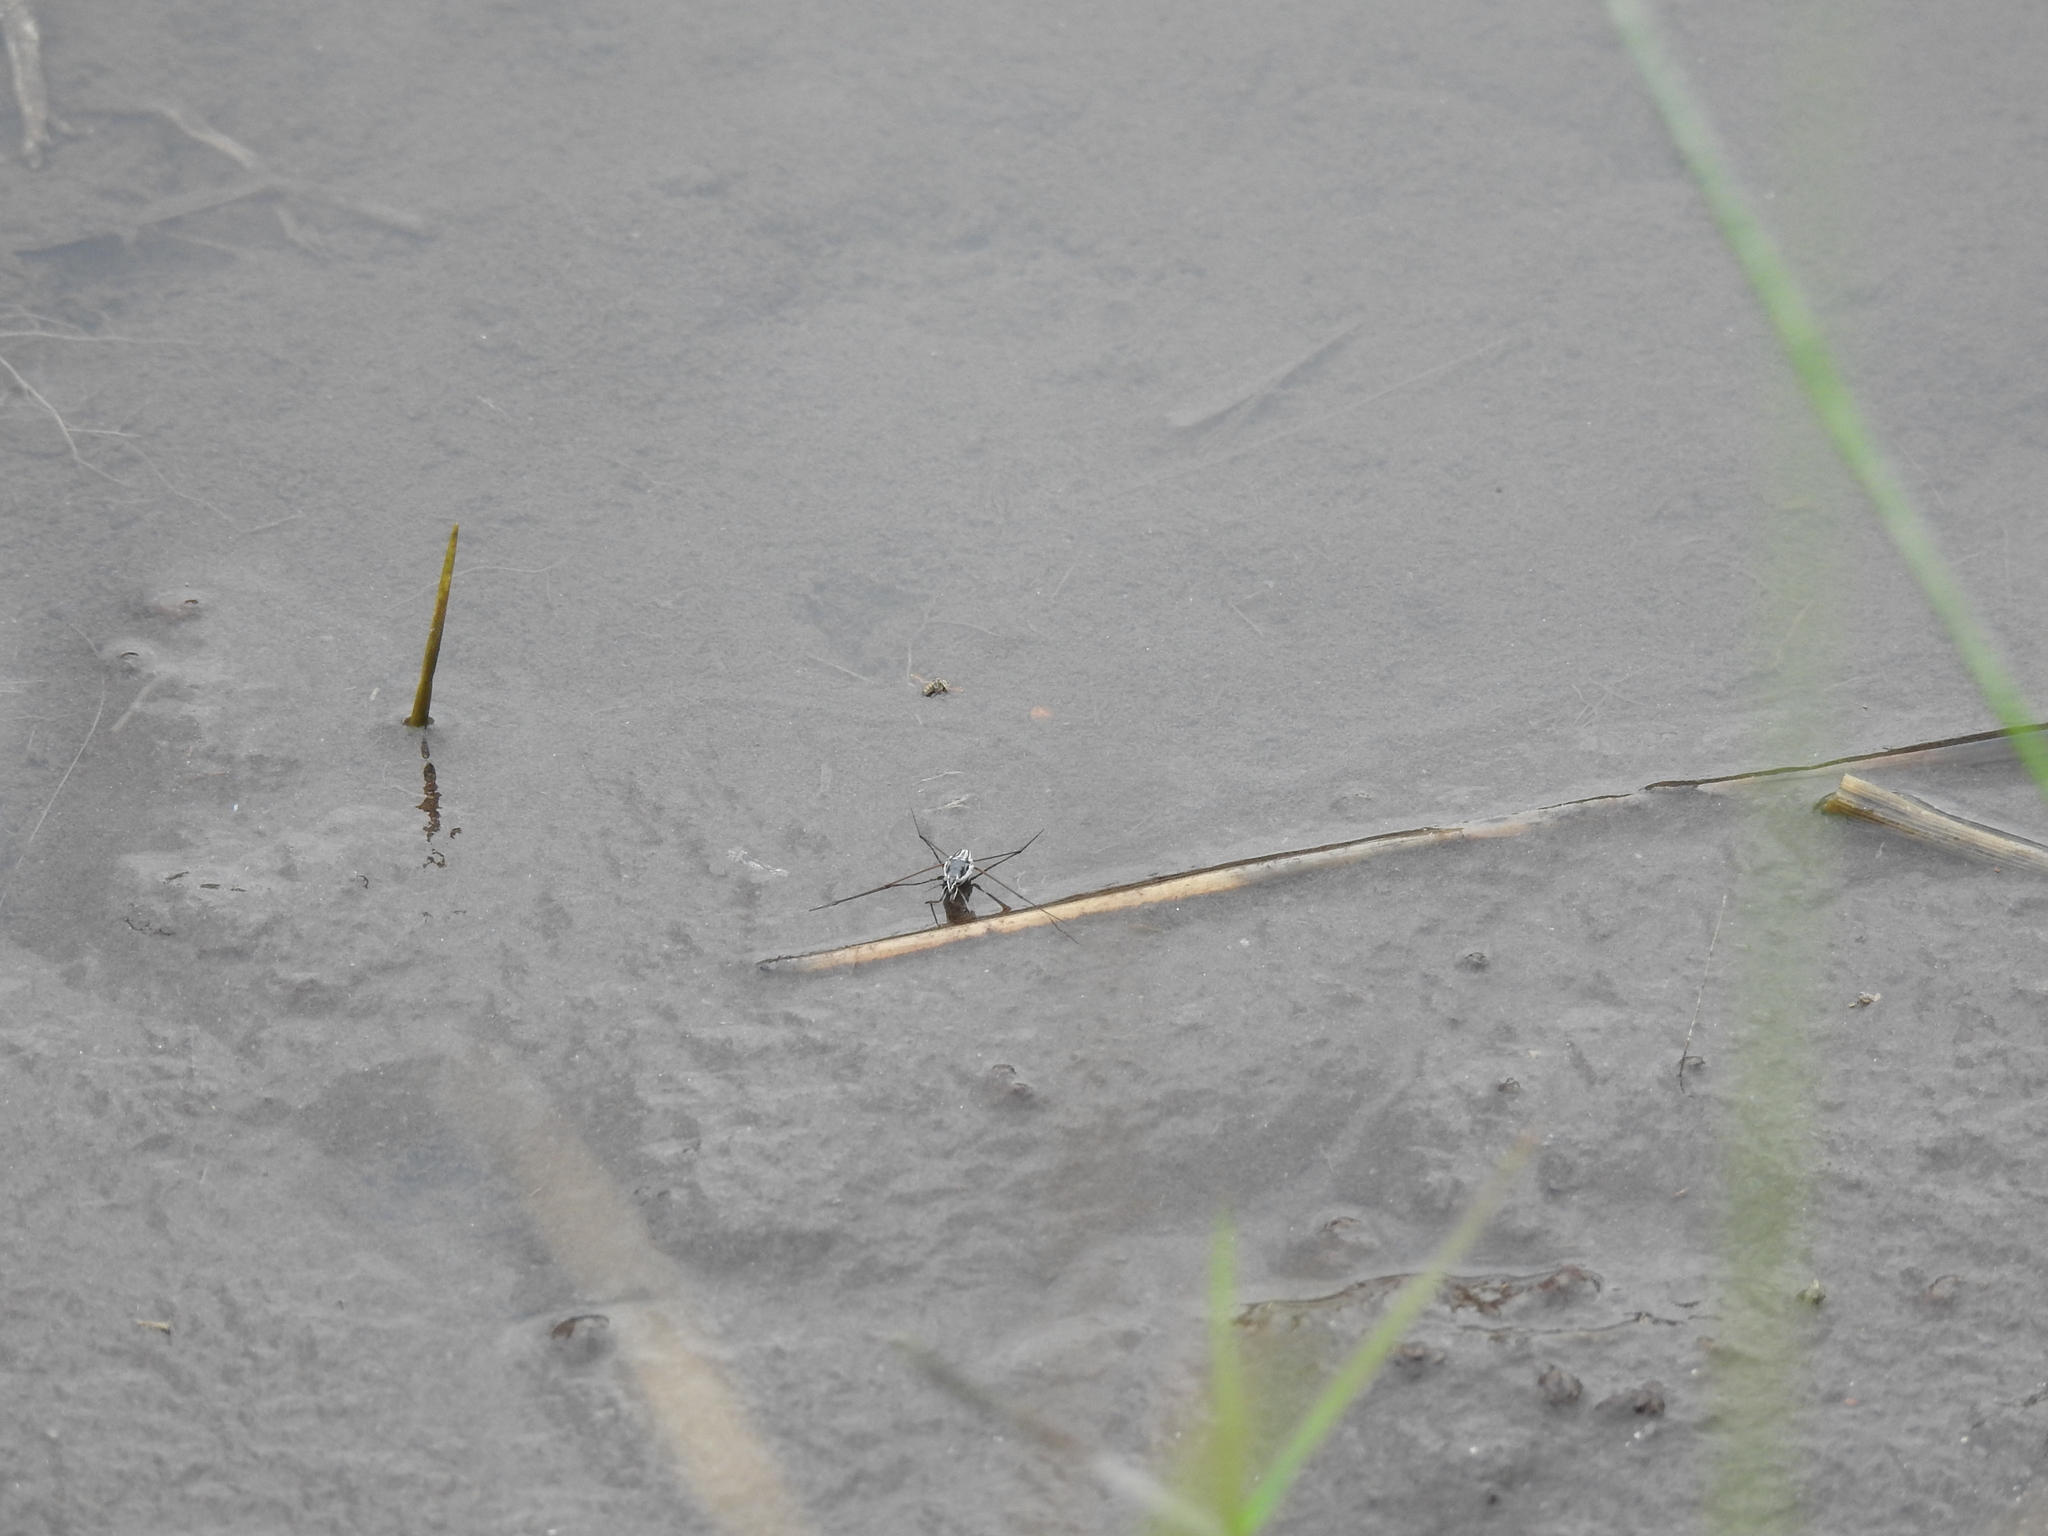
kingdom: Animalia
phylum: Arthropoda
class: Insecta
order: Hemiptera
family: Gerridae
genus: Neogerris
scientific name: Neogerris hesione
